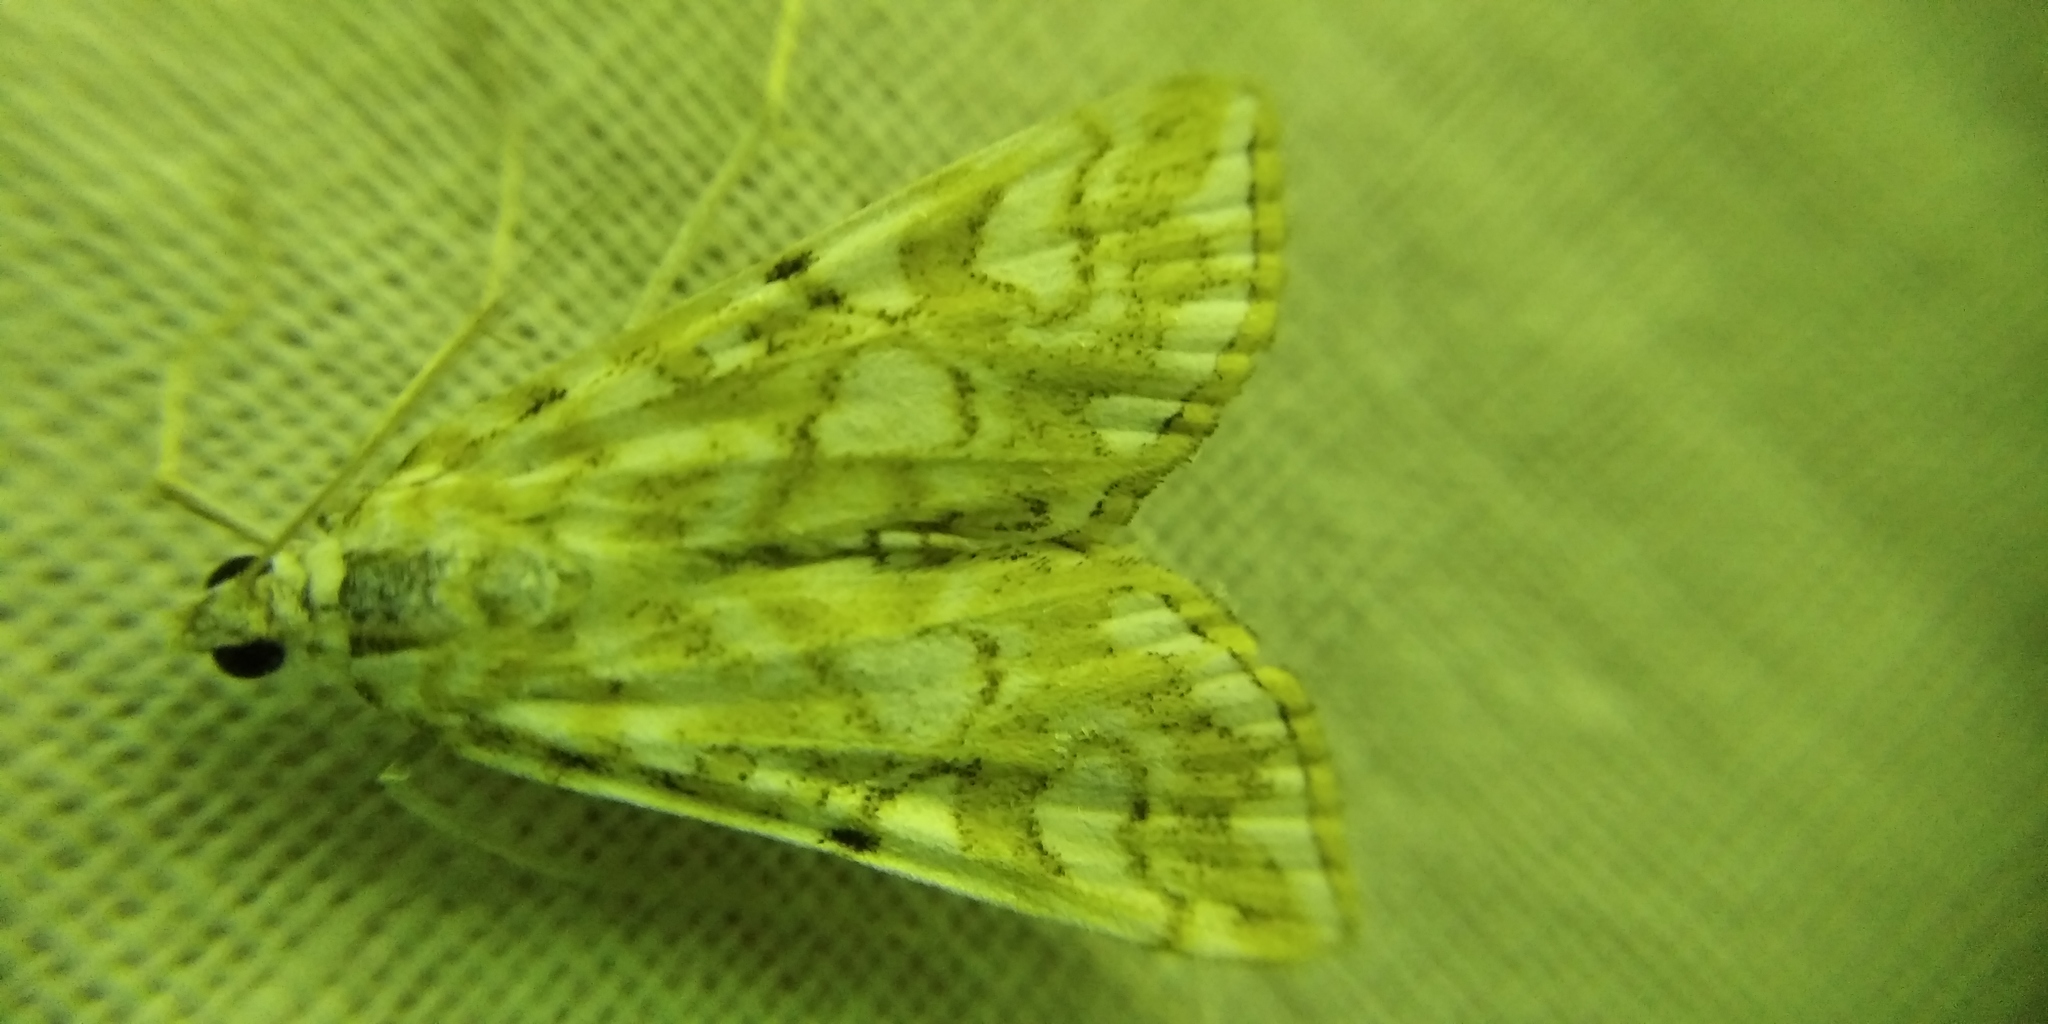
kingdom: Animalia
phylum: Arthropoda
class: Insecta
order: Lepidoptera
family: Crambidae
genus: Elophila
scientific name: Elophila nymphaeata
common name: Brown china-mark
